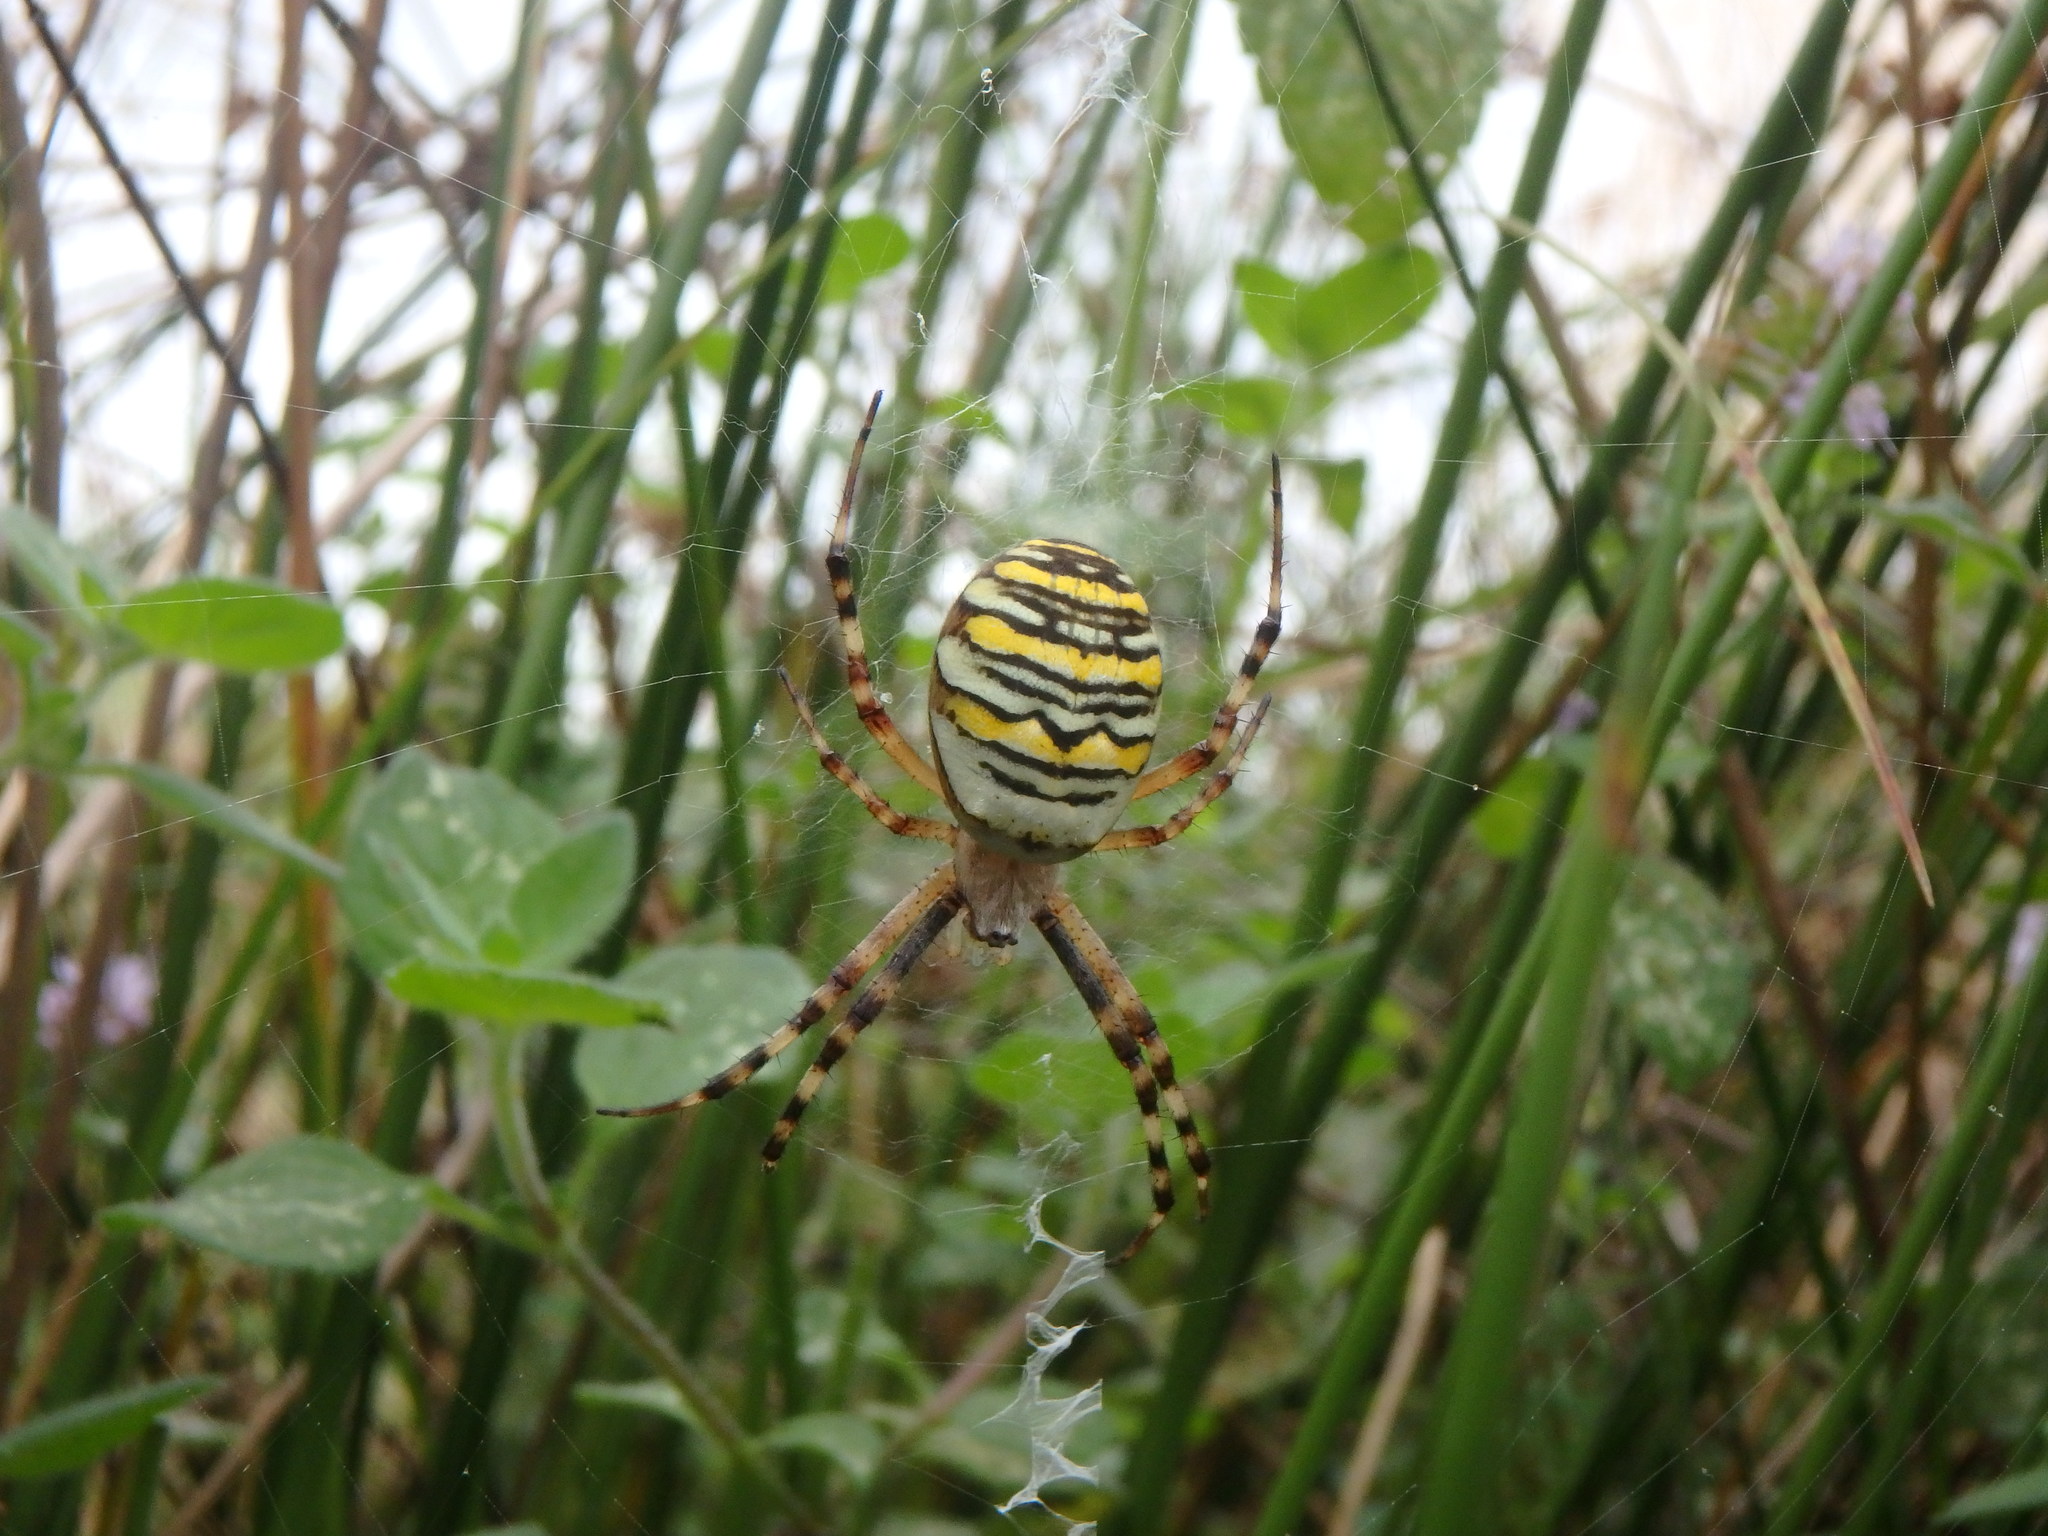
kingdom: Animalia
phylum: Arthropoda
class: Arachnida
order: Araneae
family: Araneidae
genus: Argiope
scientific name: Argiope bruennichi
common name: Wasp spider
